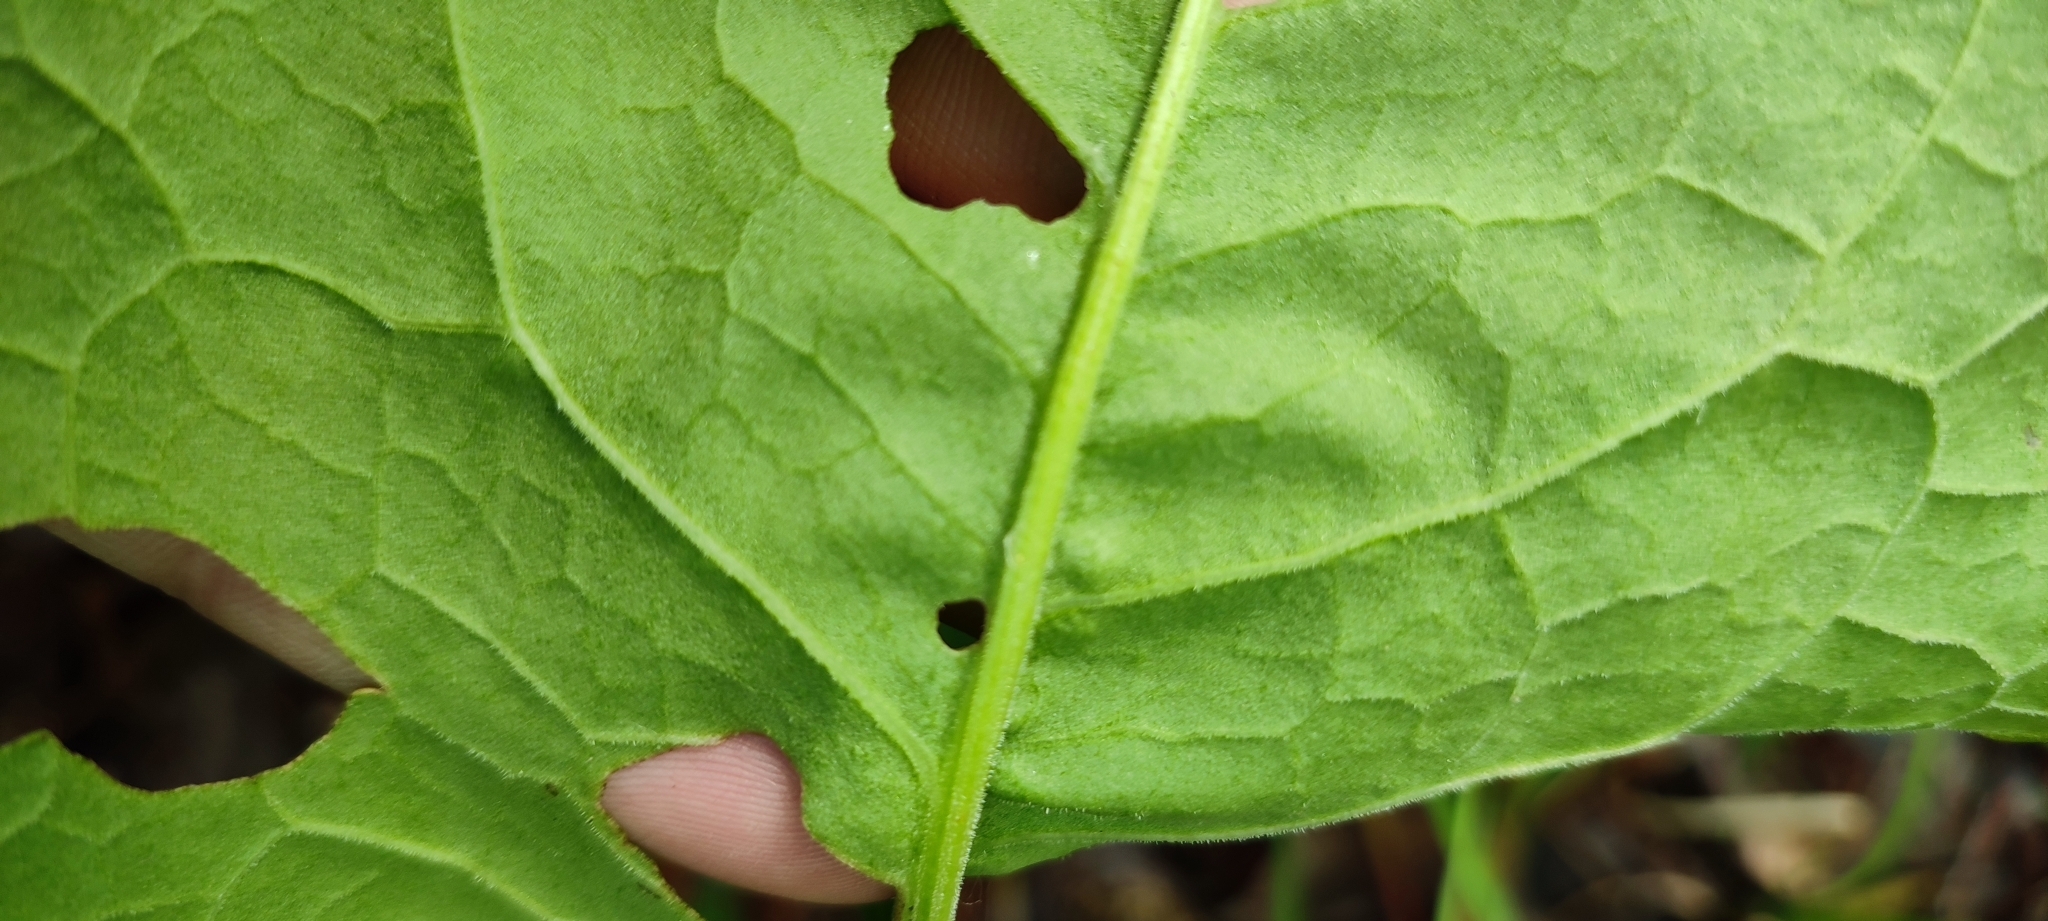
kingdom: Plantae
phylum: Tracheophyta
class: Magnoliopsida
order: Caryophyllales
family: Polygonaceae
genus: Rumex
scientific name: Rumex confertus
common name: Russian dock
